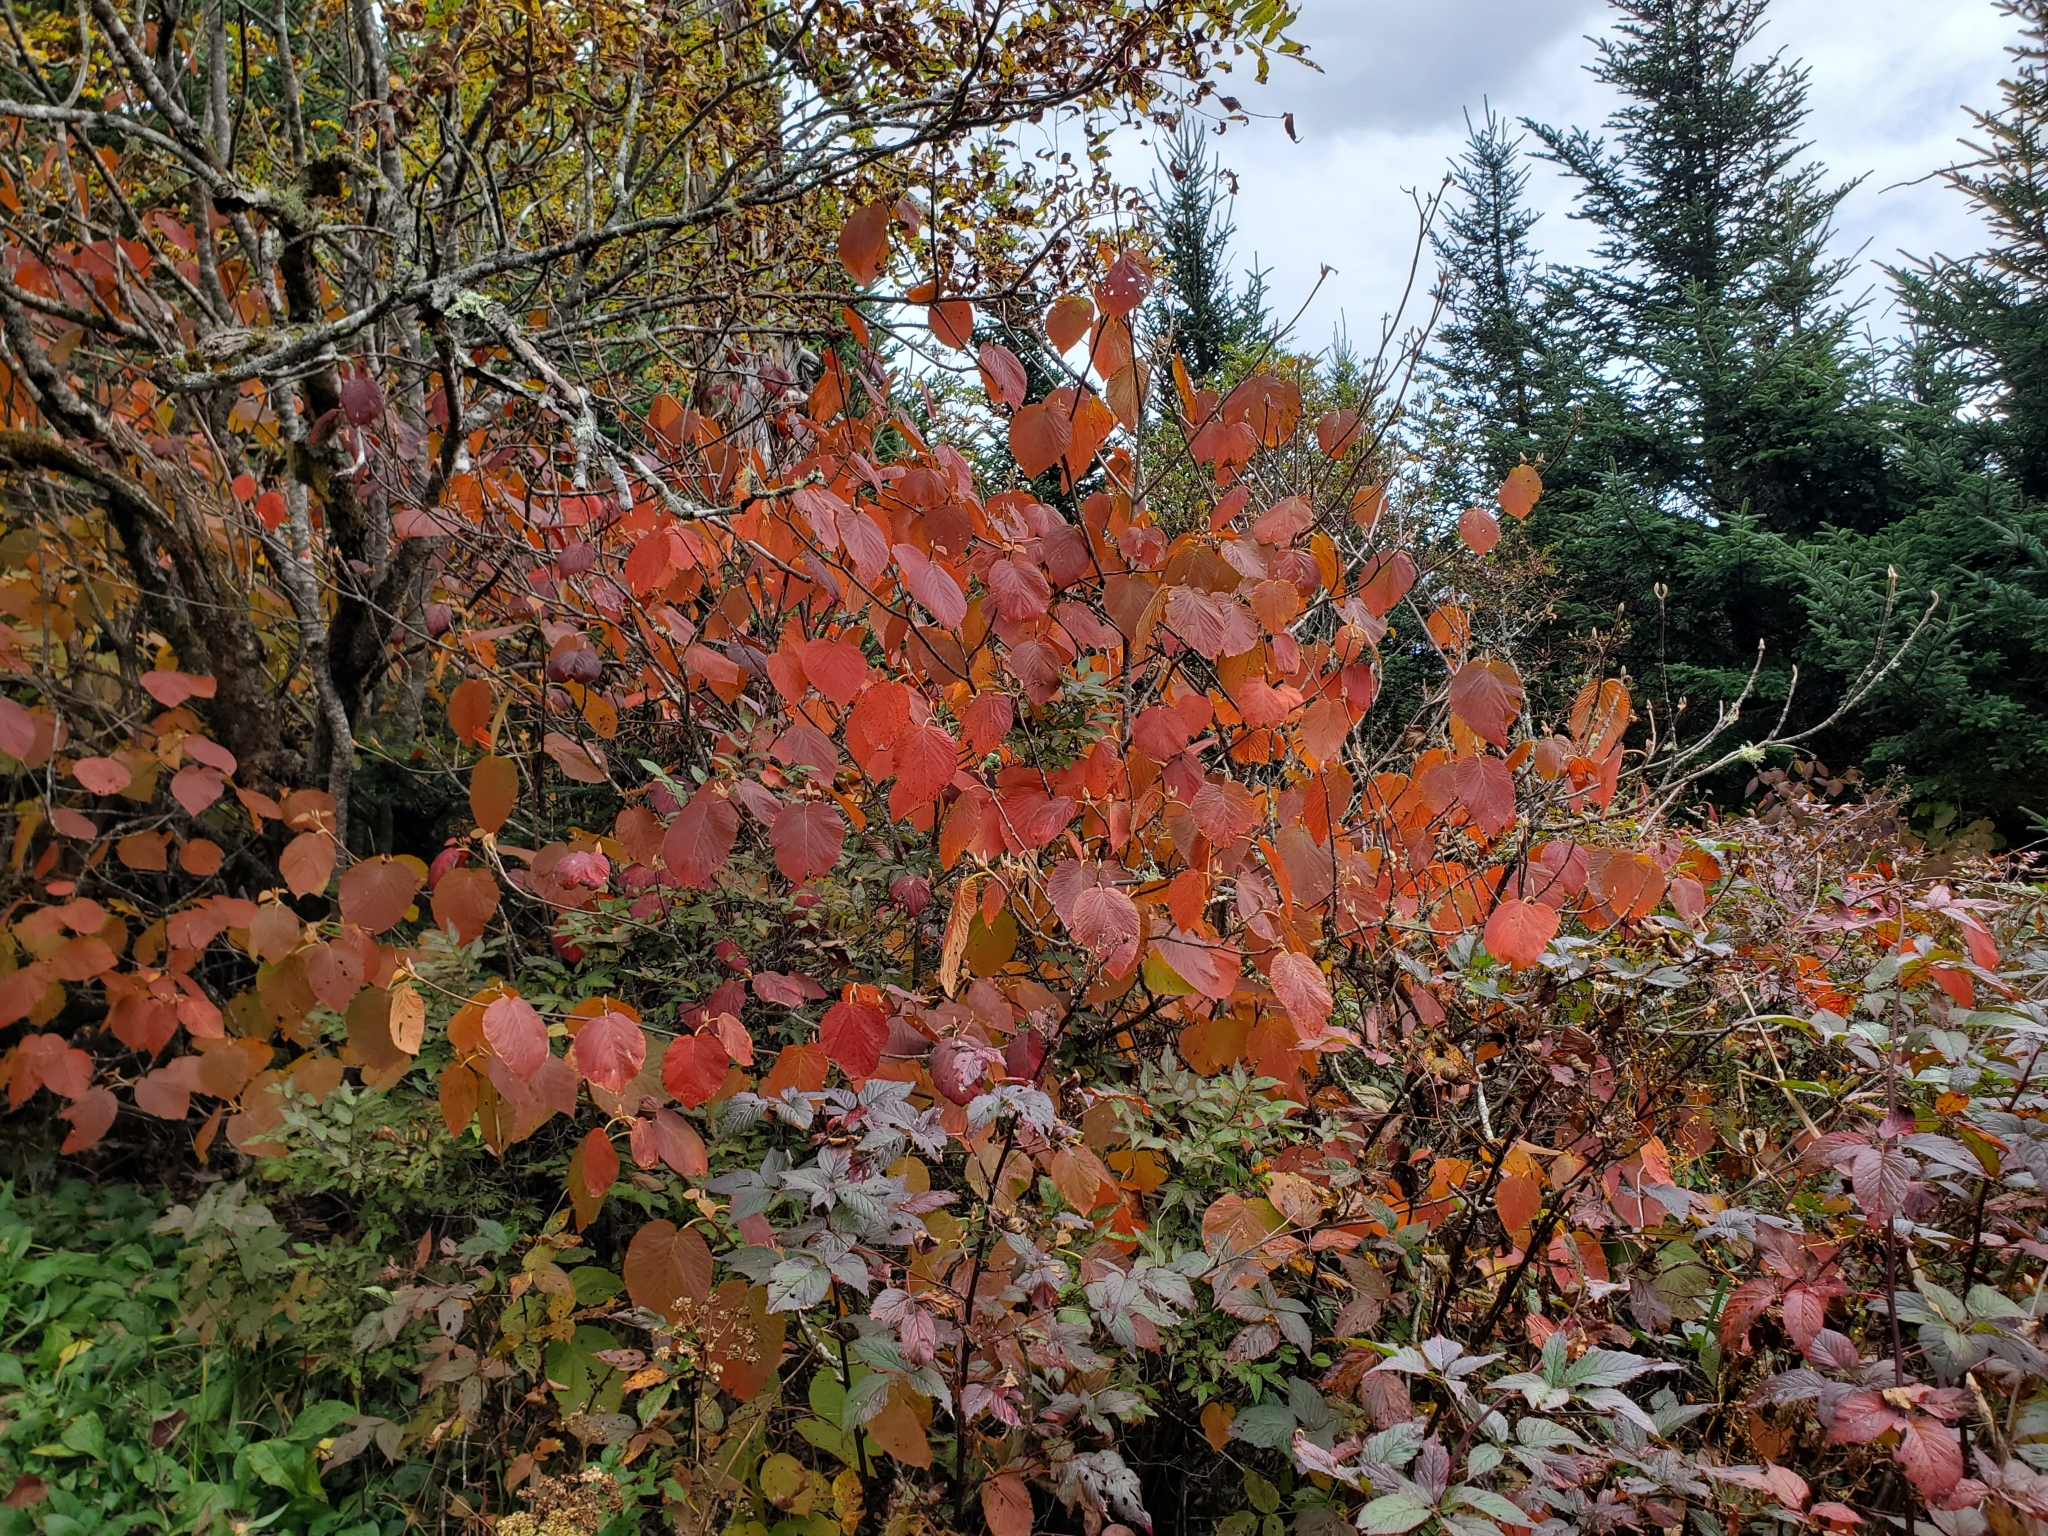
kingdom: Plantae
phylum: Tracheophyta
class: Magnoliopsida
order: Dipsacales
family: Viburnaceae
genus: Viburnum
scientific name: Viburnum lantanoides
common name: Hobblebush
